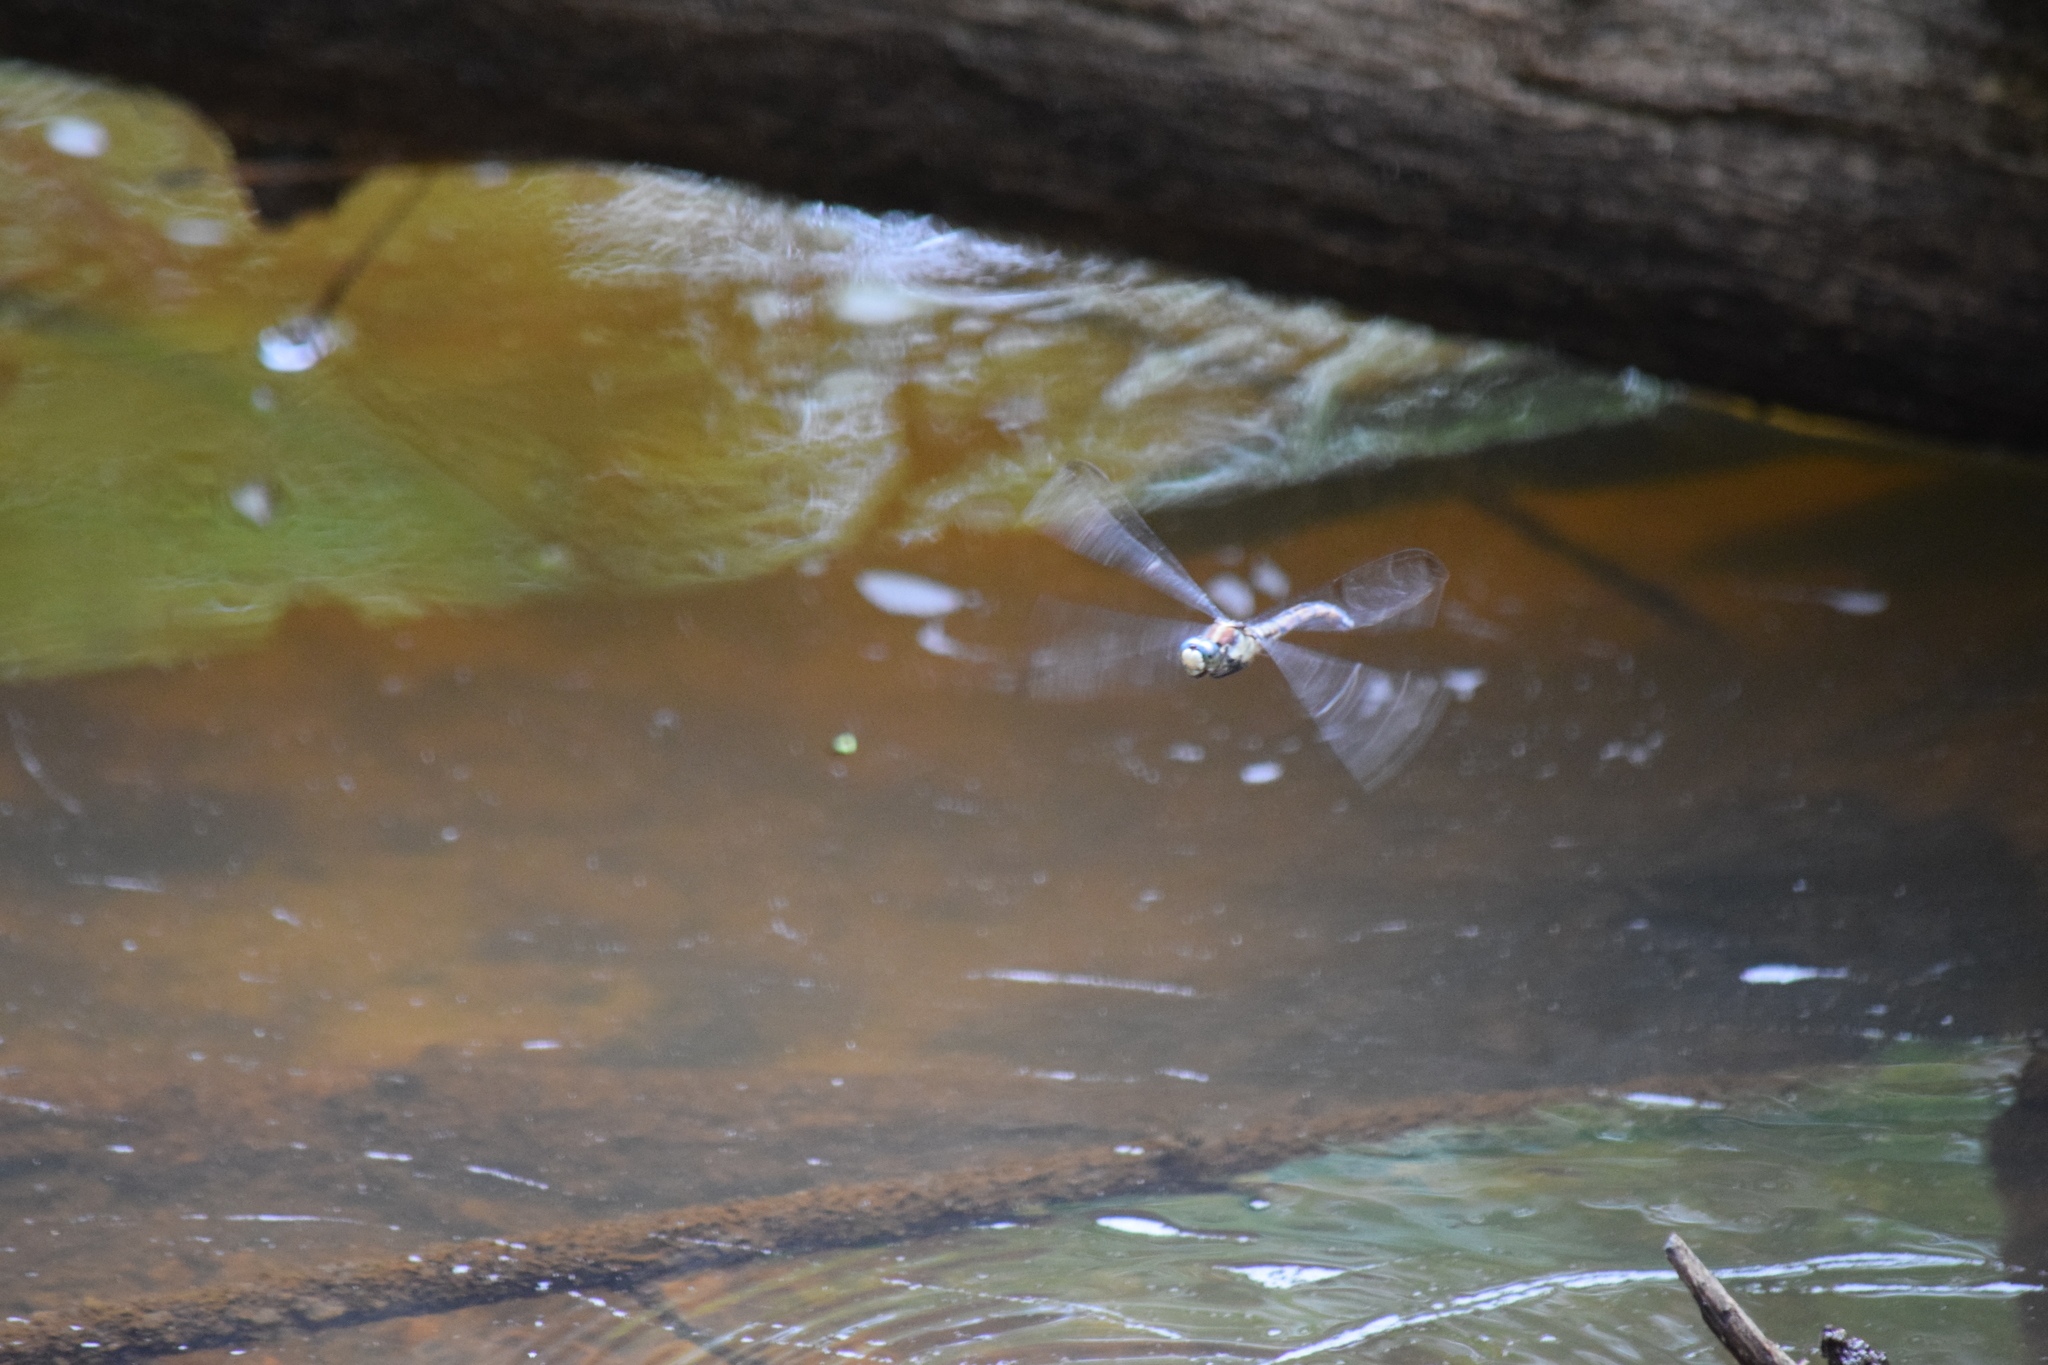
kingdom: Animalia
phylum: Arthropoda
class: Insecta
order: Odonata
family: Libellulidae
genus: Libellula
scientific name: Libellula vibrans
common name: Great blue skimmer
